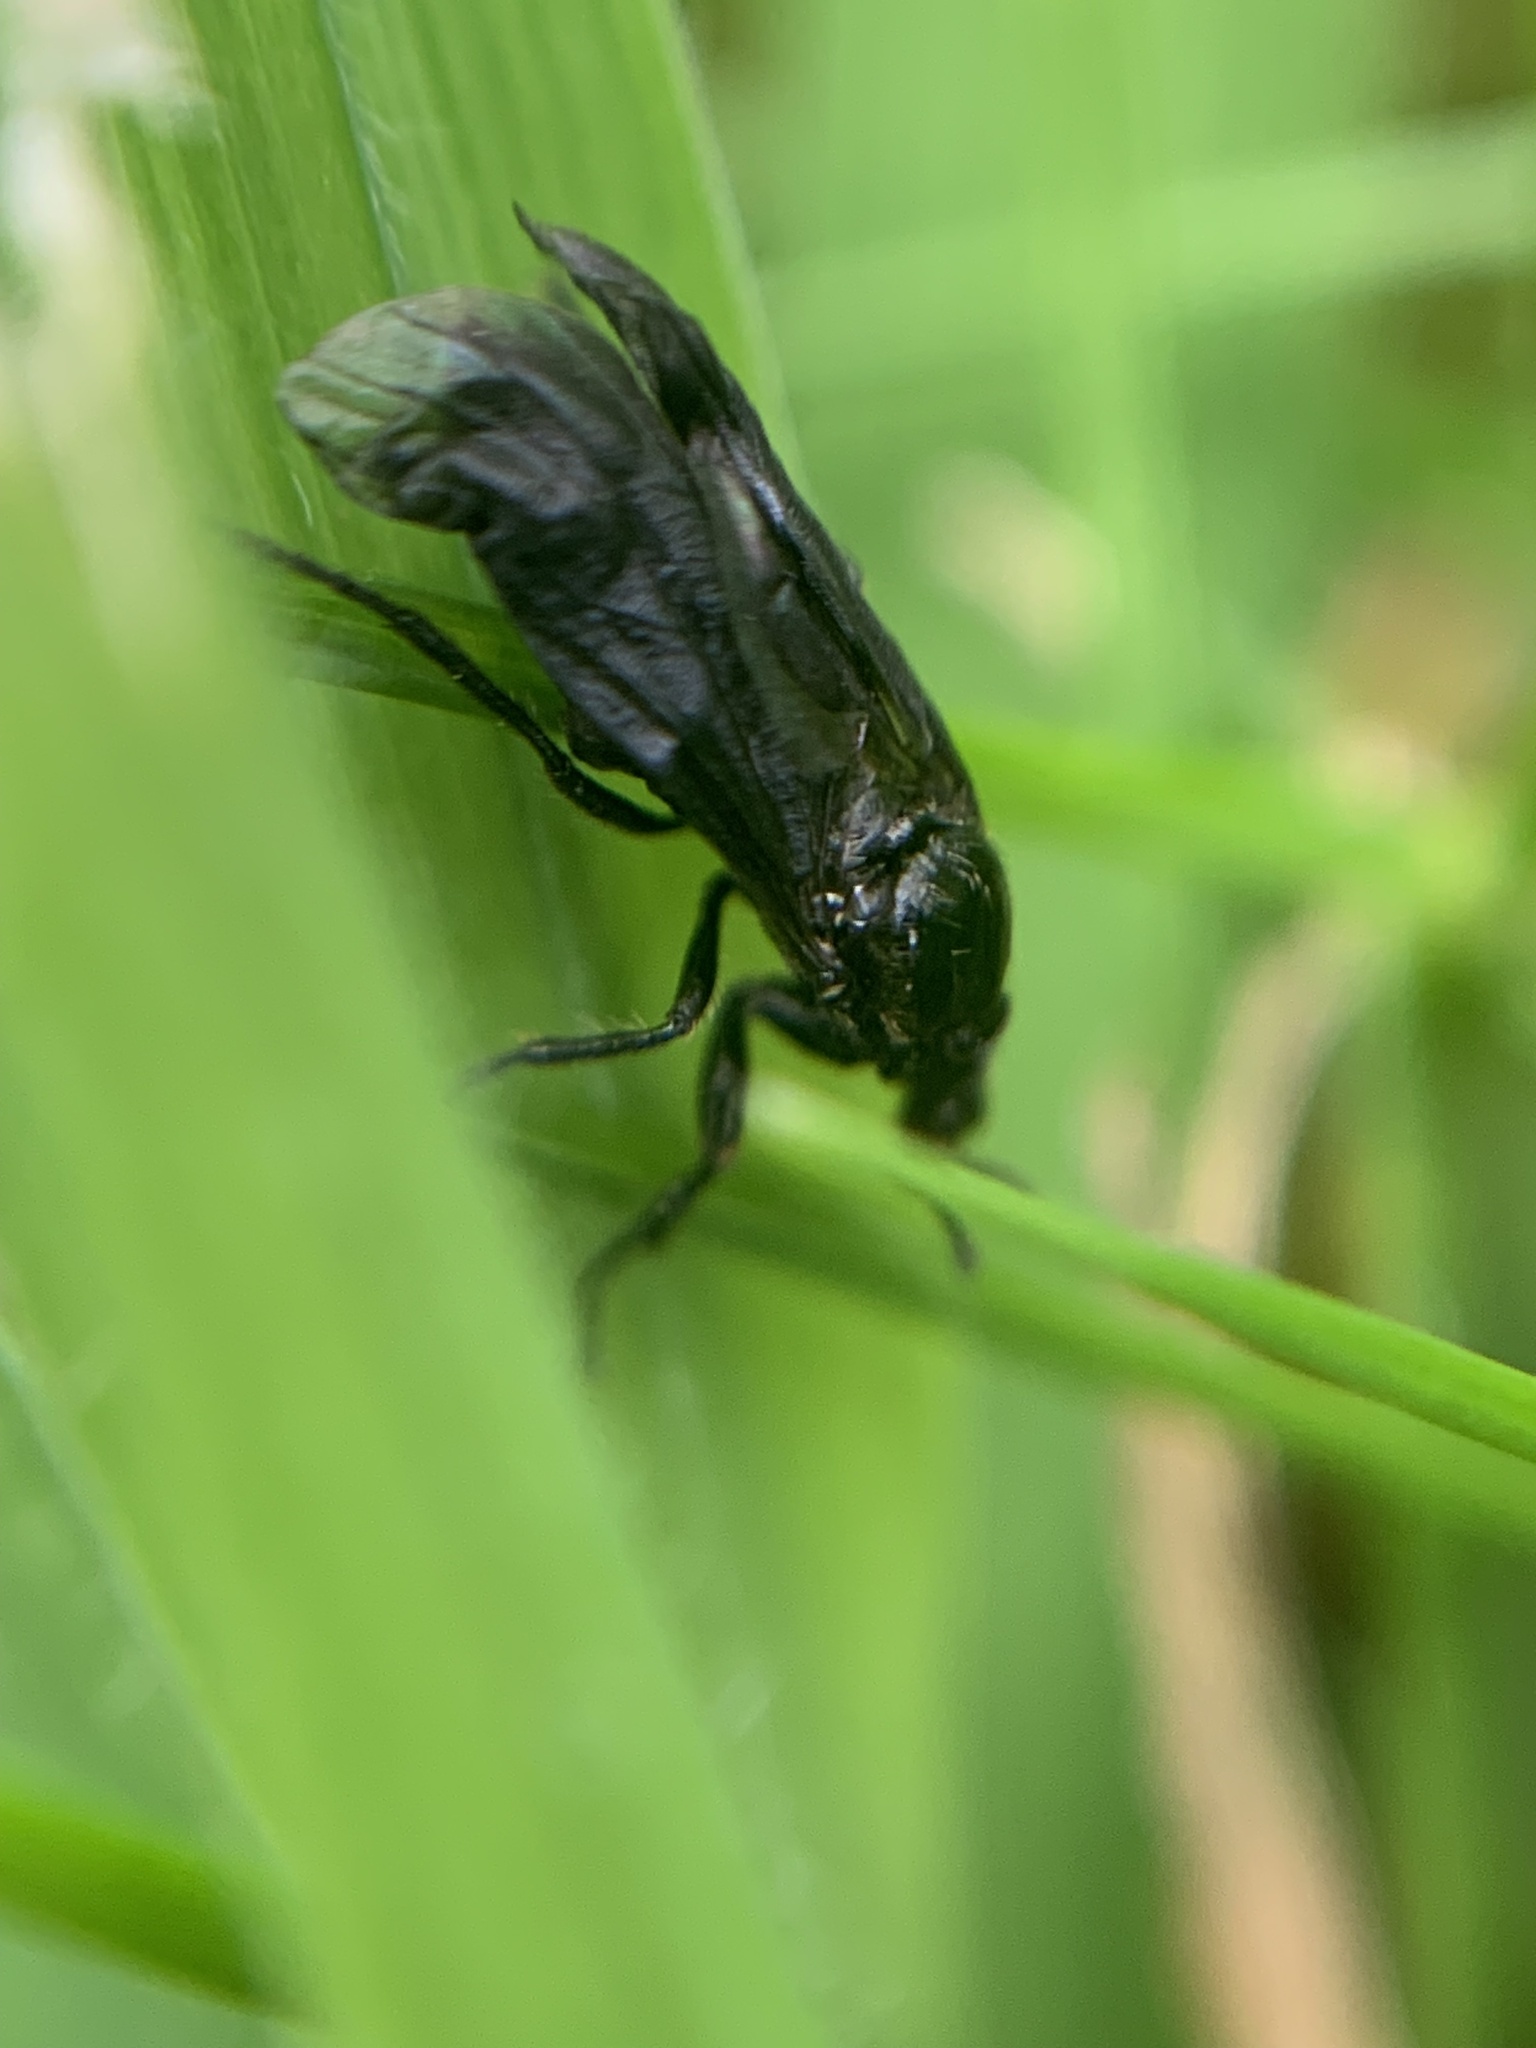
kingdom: Animalia
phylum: Arthropoda
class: Insecta
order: Diptera
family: Bibionidae
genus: Dilophus
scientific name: Dilophus febrilis
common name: Fever fly
